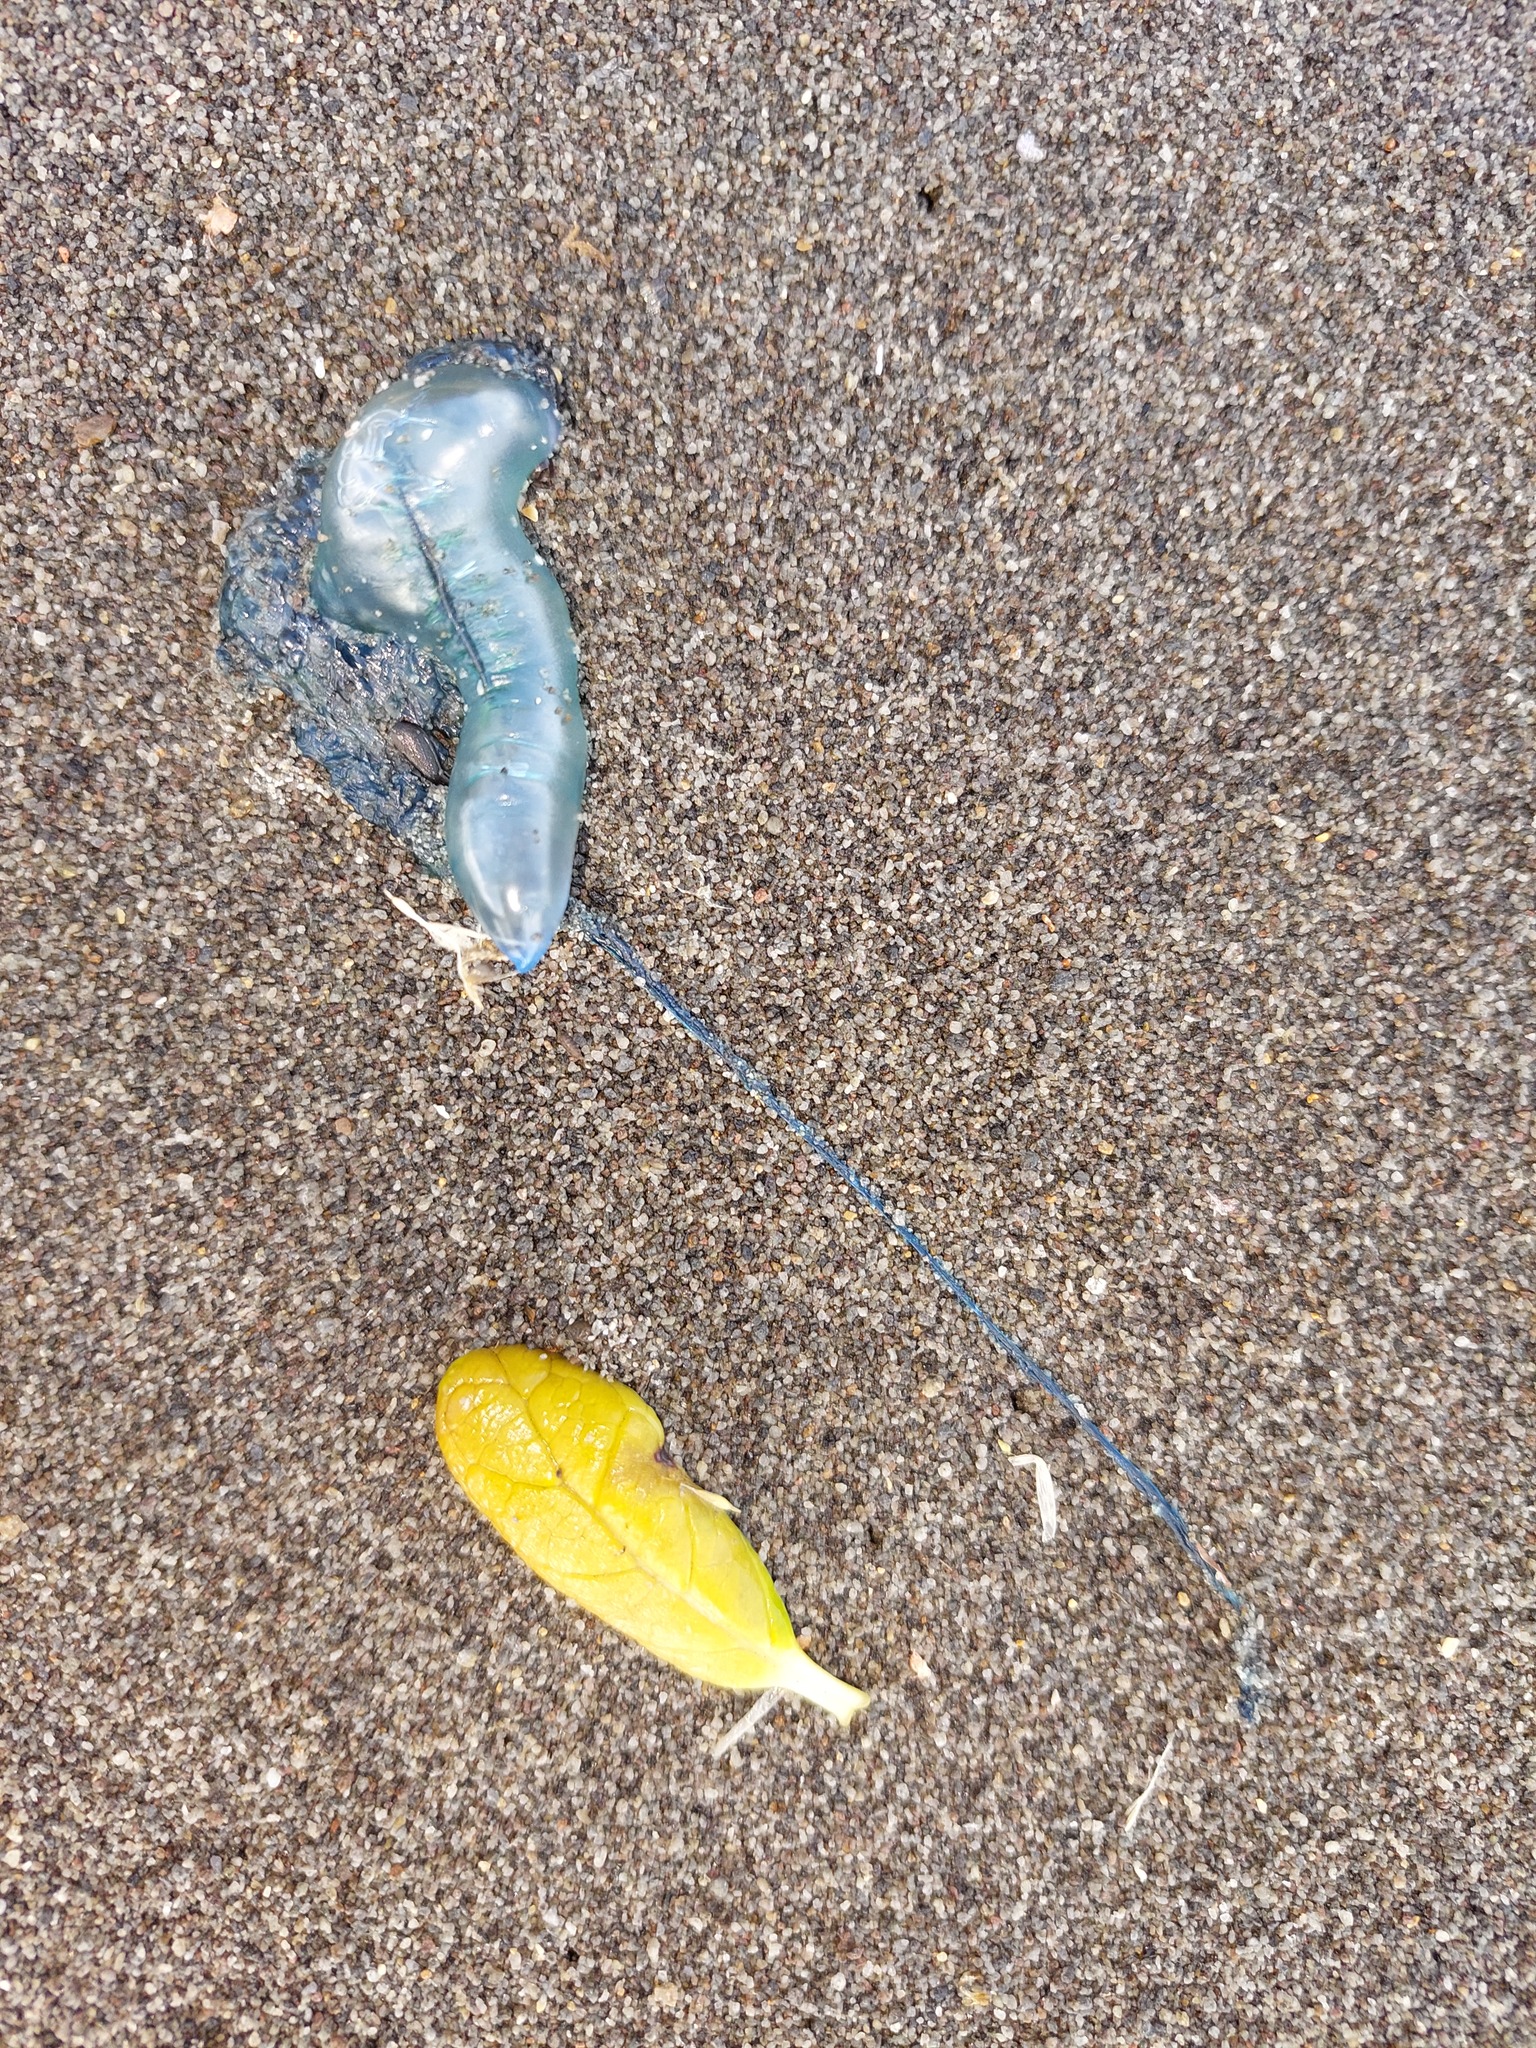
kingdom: Animalia
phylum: Cnidaria
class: Hydrozoa
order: Siphonophorae
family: Physaliidae
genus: Physalia
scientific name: Physalia physalis
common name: Portuguese man-of-war
